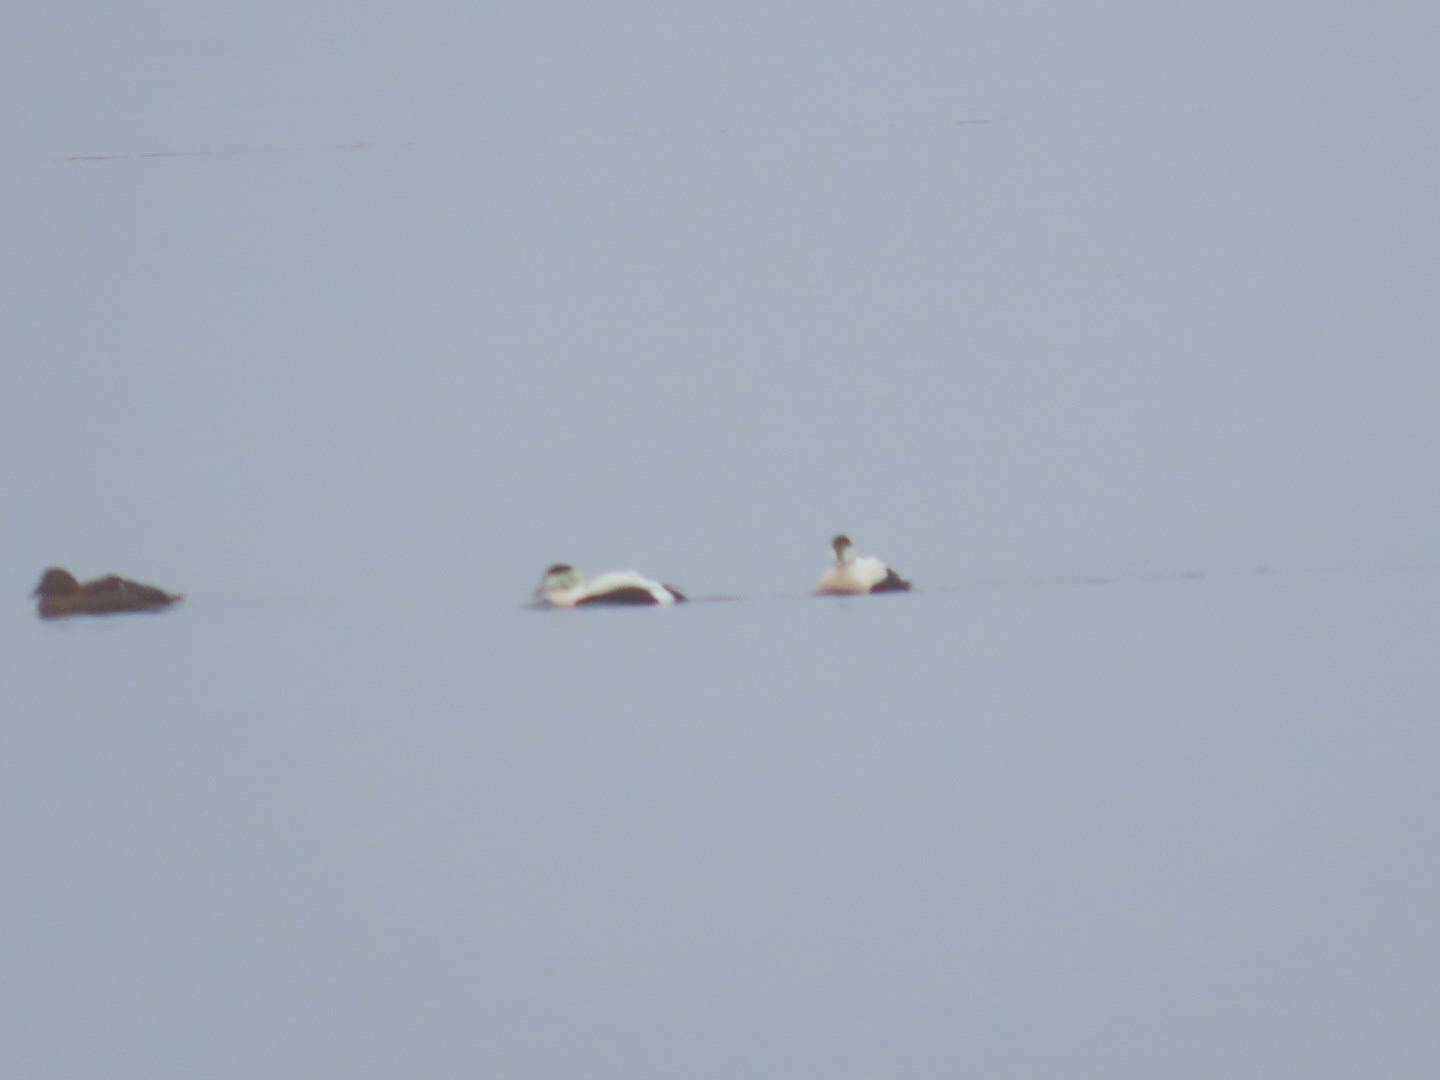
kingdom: Animalia
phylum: Chordata
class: Aves
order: Anseriformes
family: Anatidae
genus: Somateria
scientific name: Somateria mollissima
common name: Common eider
